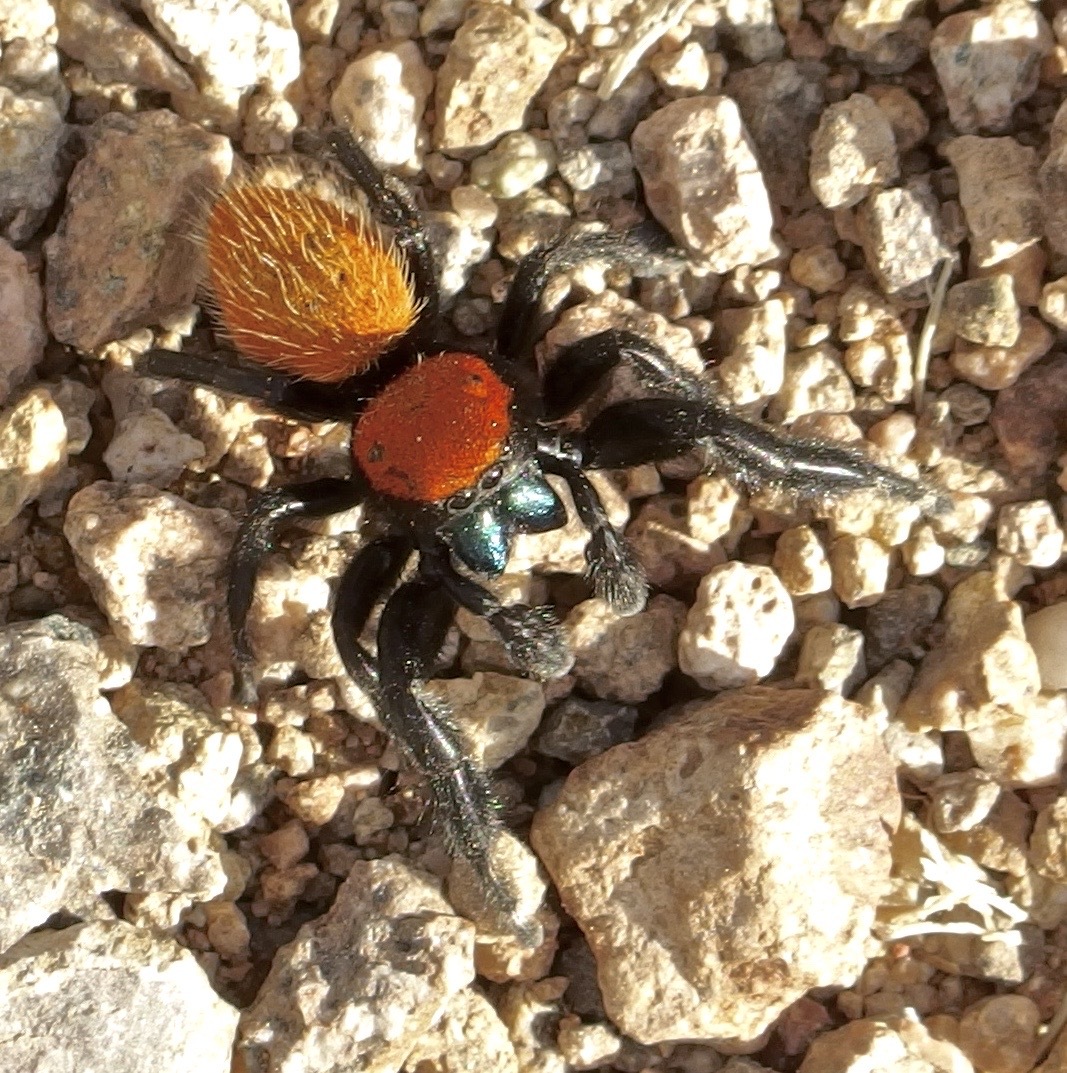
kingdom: Animalia
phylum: Arthropoda
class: Arachnida
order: Araneae
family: Salticidae
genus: Phidippus
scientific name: Phidippus apacheanus
